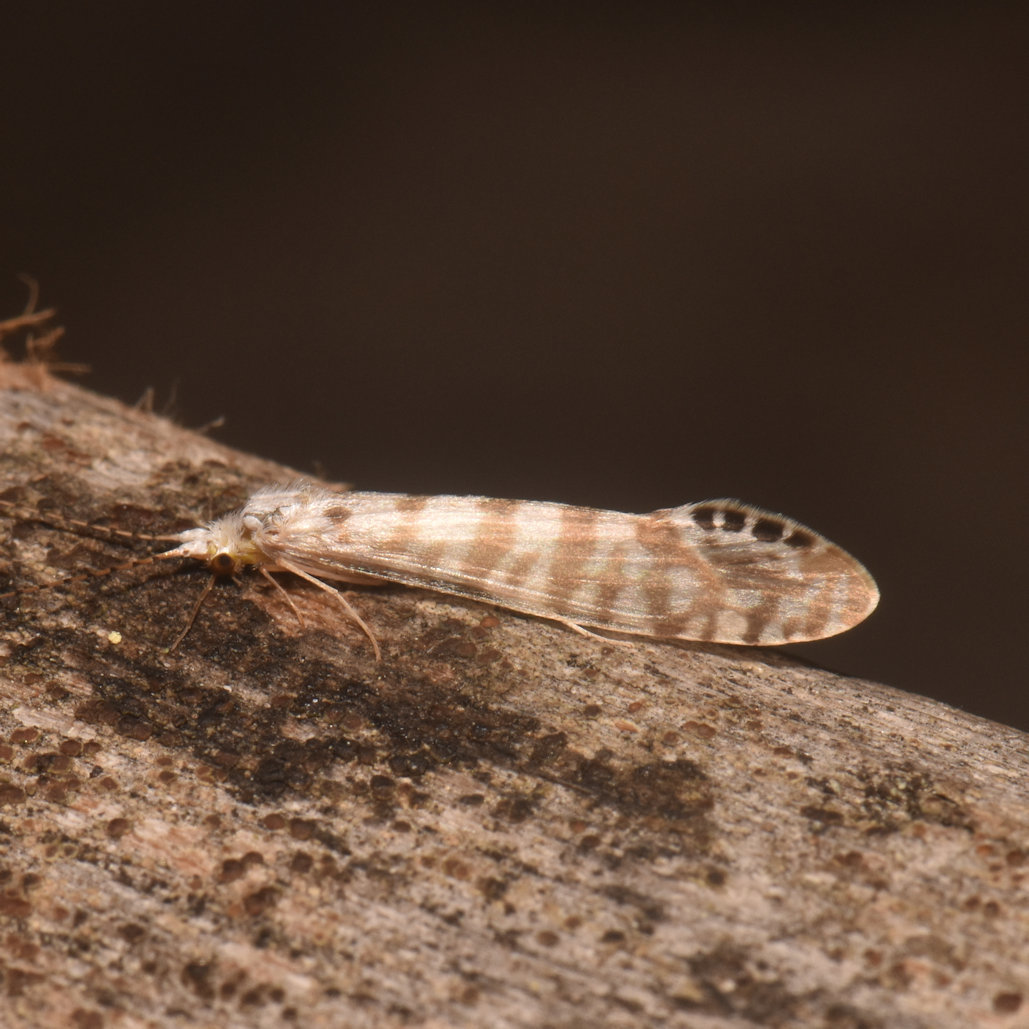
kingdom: Animalia
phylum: Arthropoda
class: Insecta
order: Trichoptera
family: Leptoceridae
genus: Nectopsyche
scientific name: Nectopsyche exquisita
